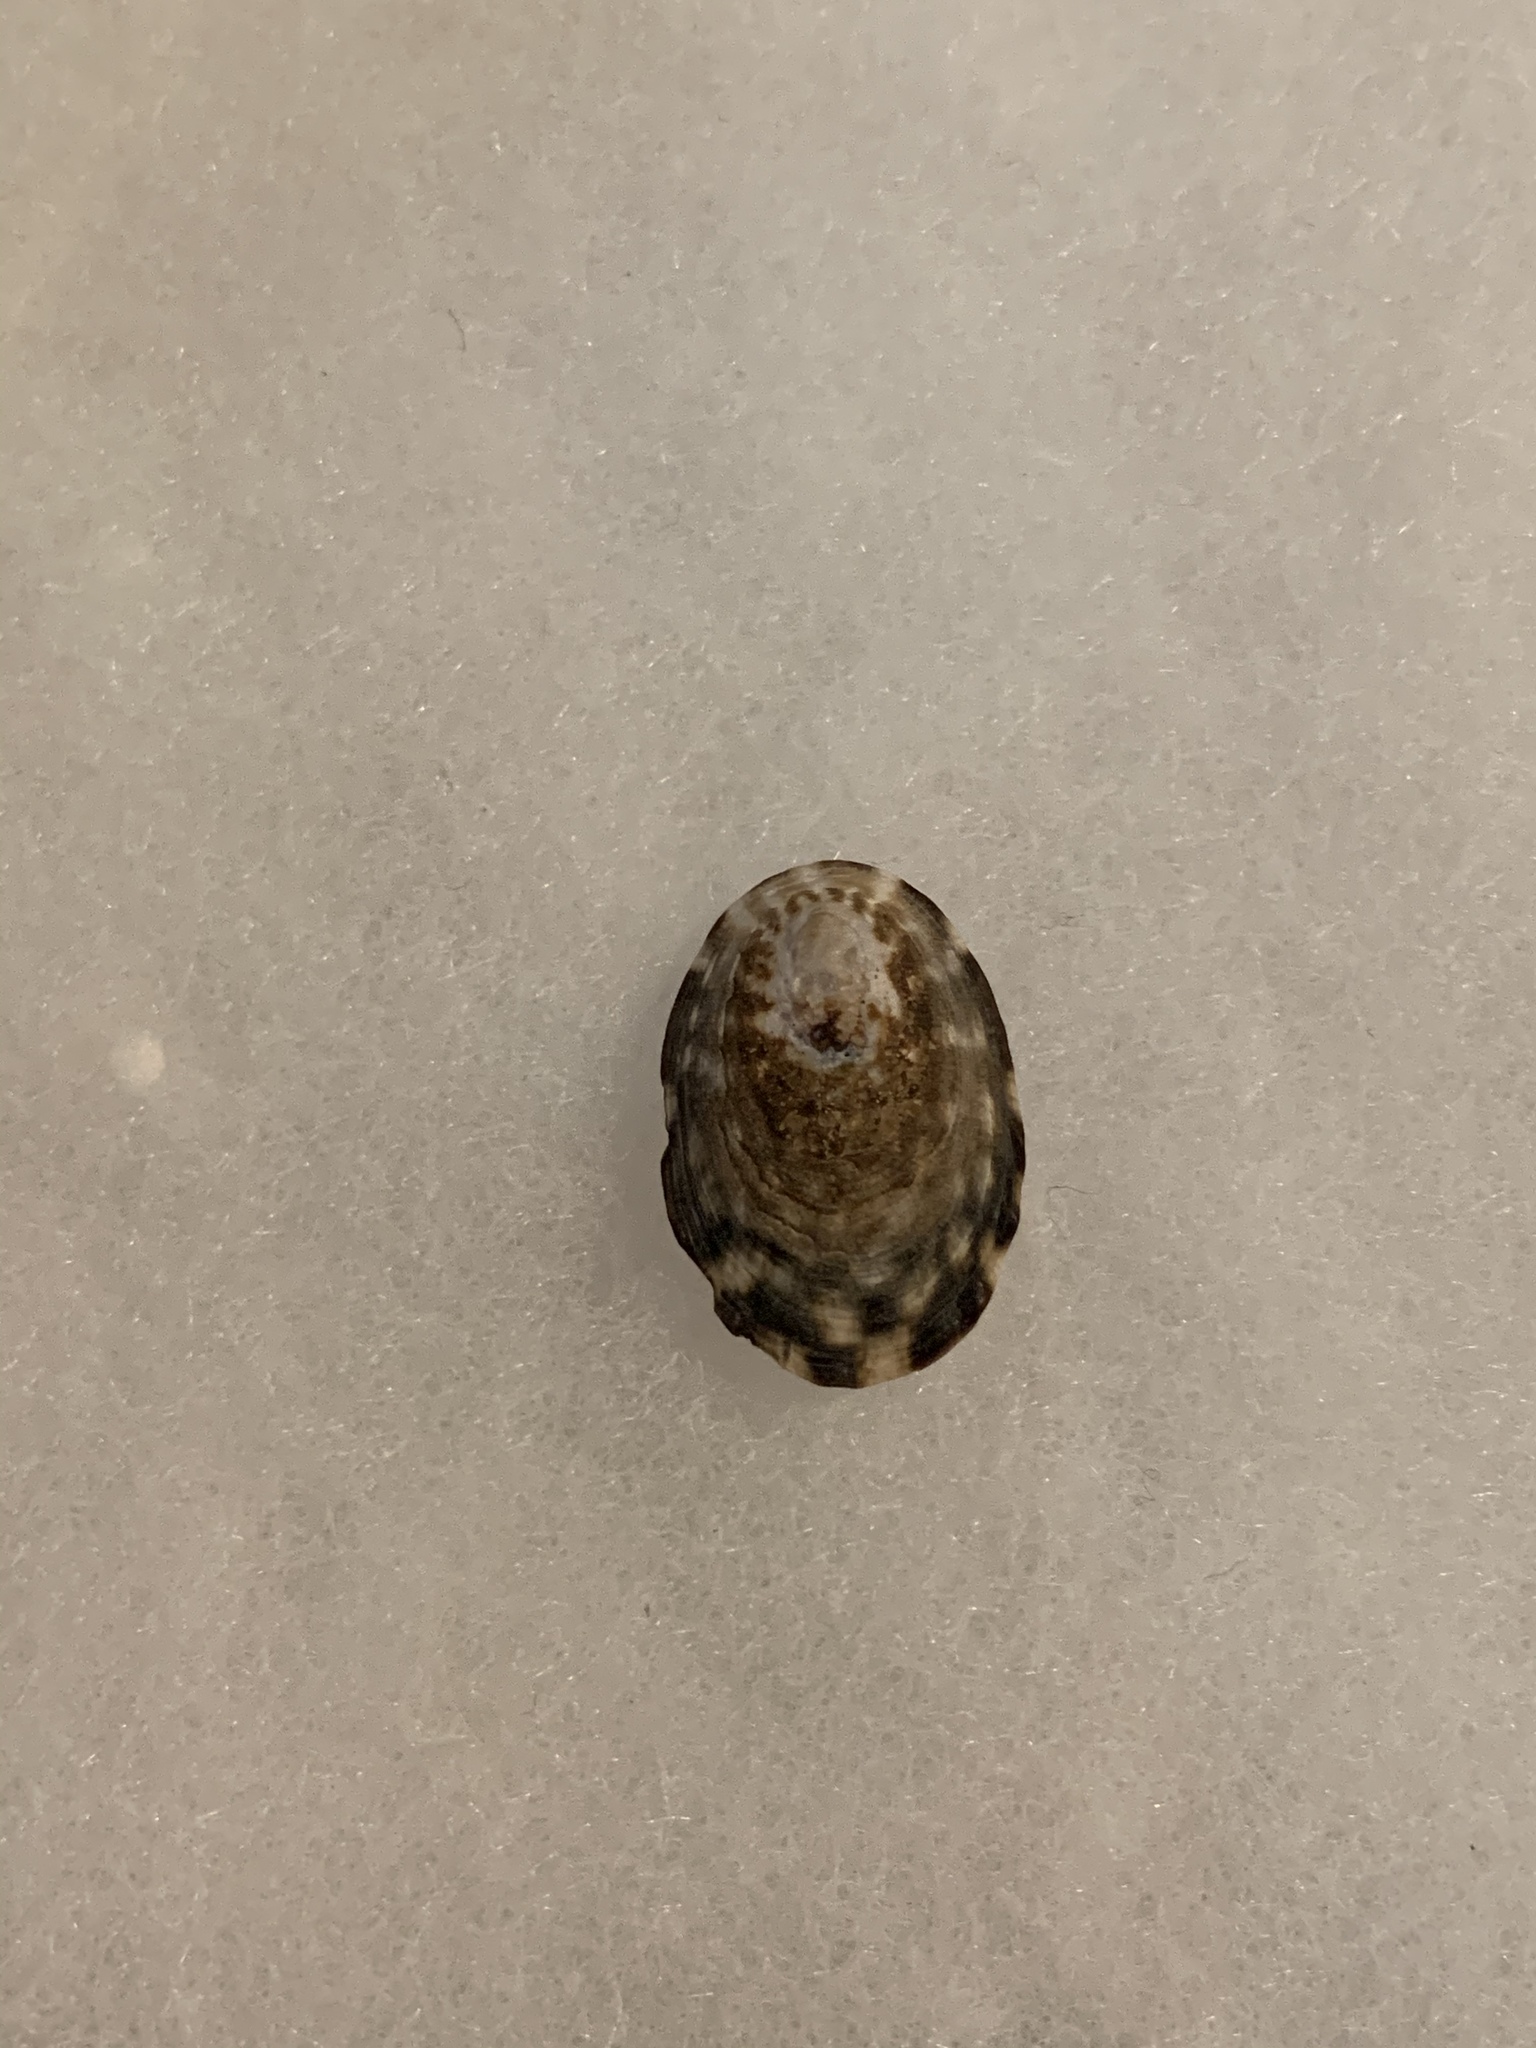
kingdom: Animalia
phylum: Mollusca
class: Gastropoda
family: Lottiidae
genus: Lottia
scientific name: Lottia gigantea
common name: Owl limpet
